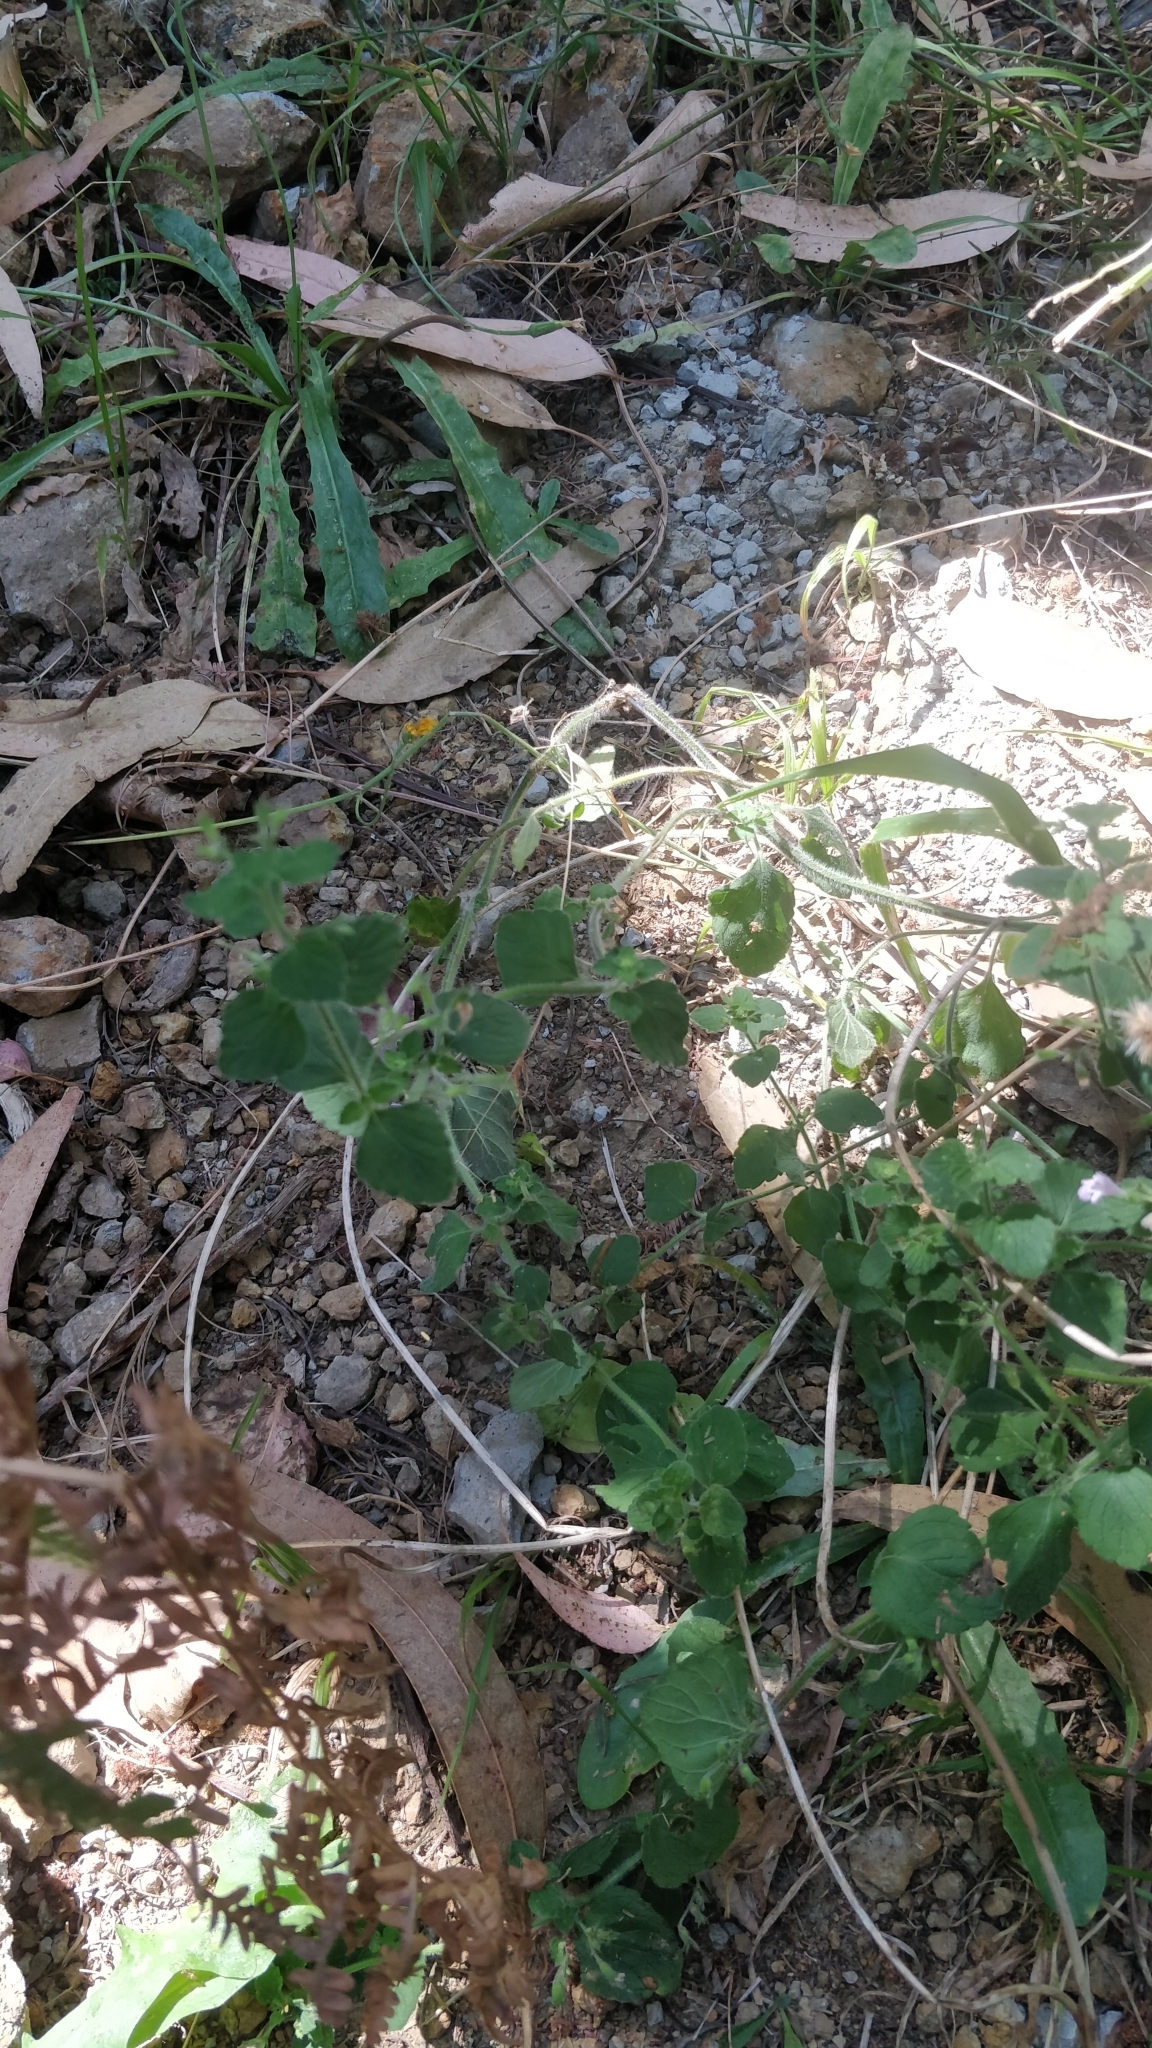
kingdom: Plantae
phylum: Tracheophyta
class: Magnoliopsida
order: Lamiales
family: Lamiaceae
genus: Clinopodium
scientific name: Clinopodium menthifolium
